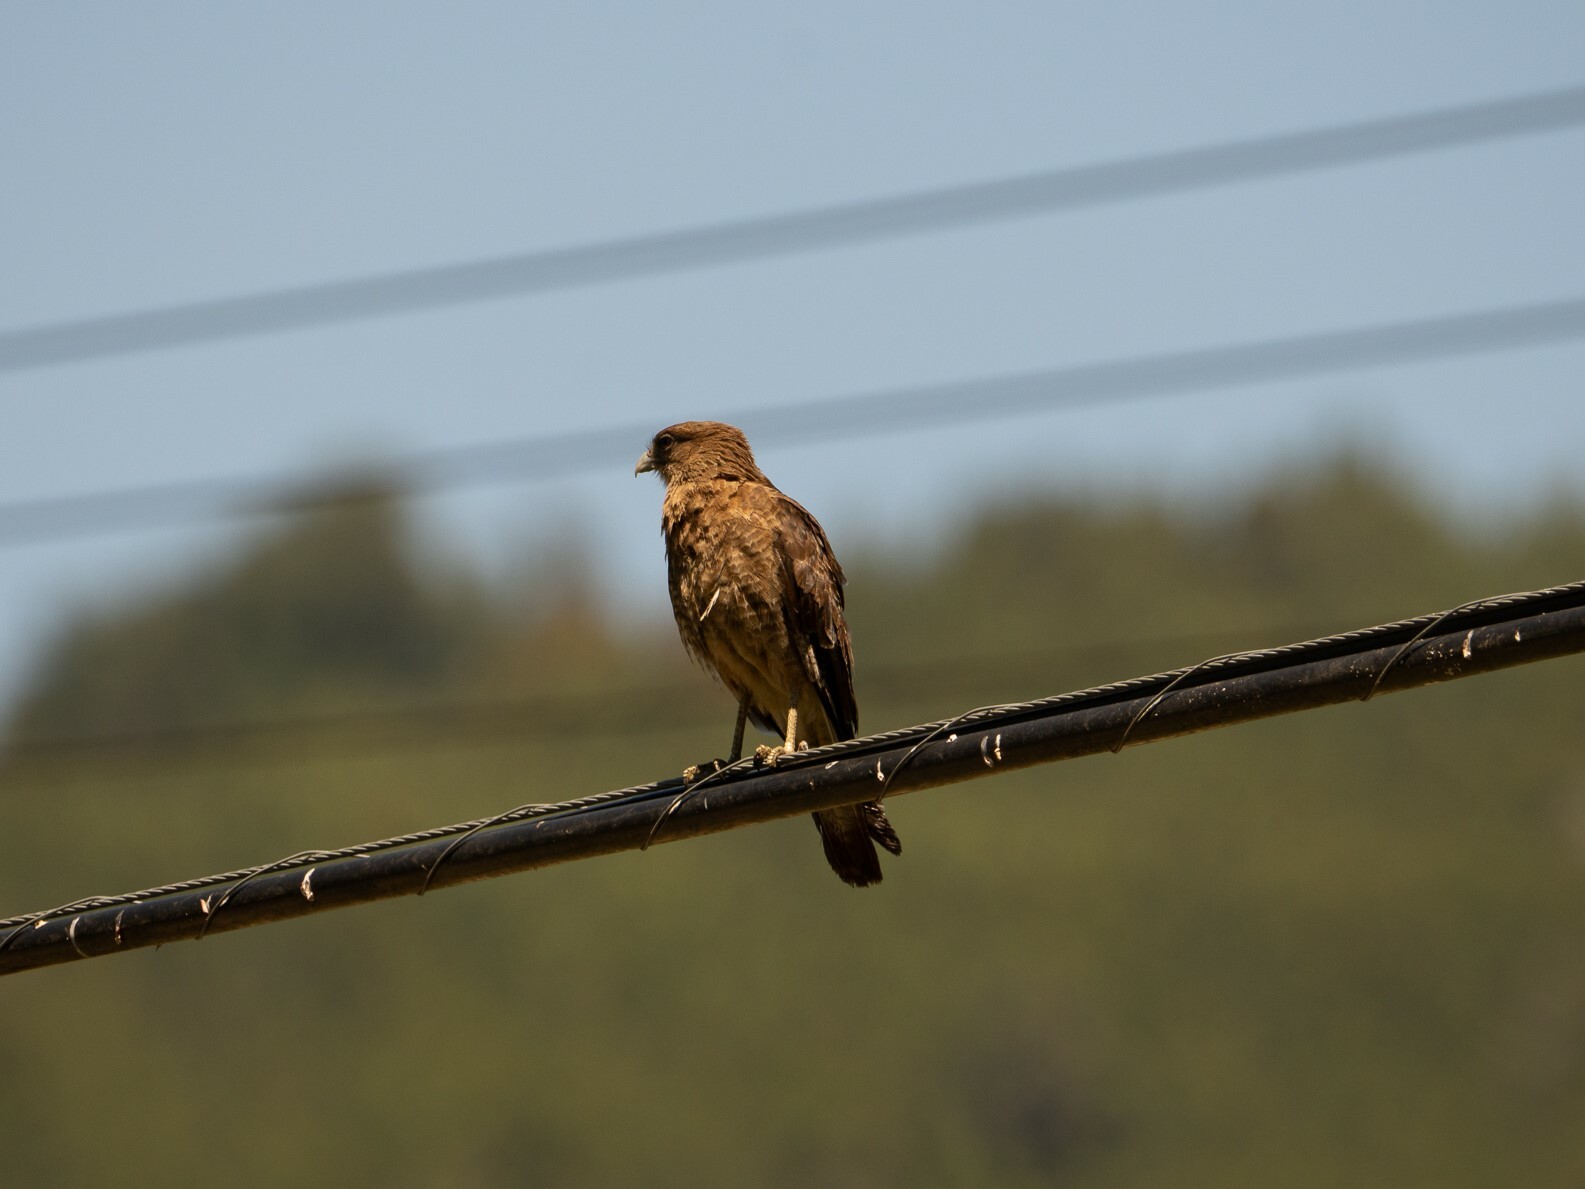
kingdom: Animalia
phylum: Chordata
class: Aves
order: Falconiformes
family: Falconidae
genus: Daptrius
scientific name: Daptrius
